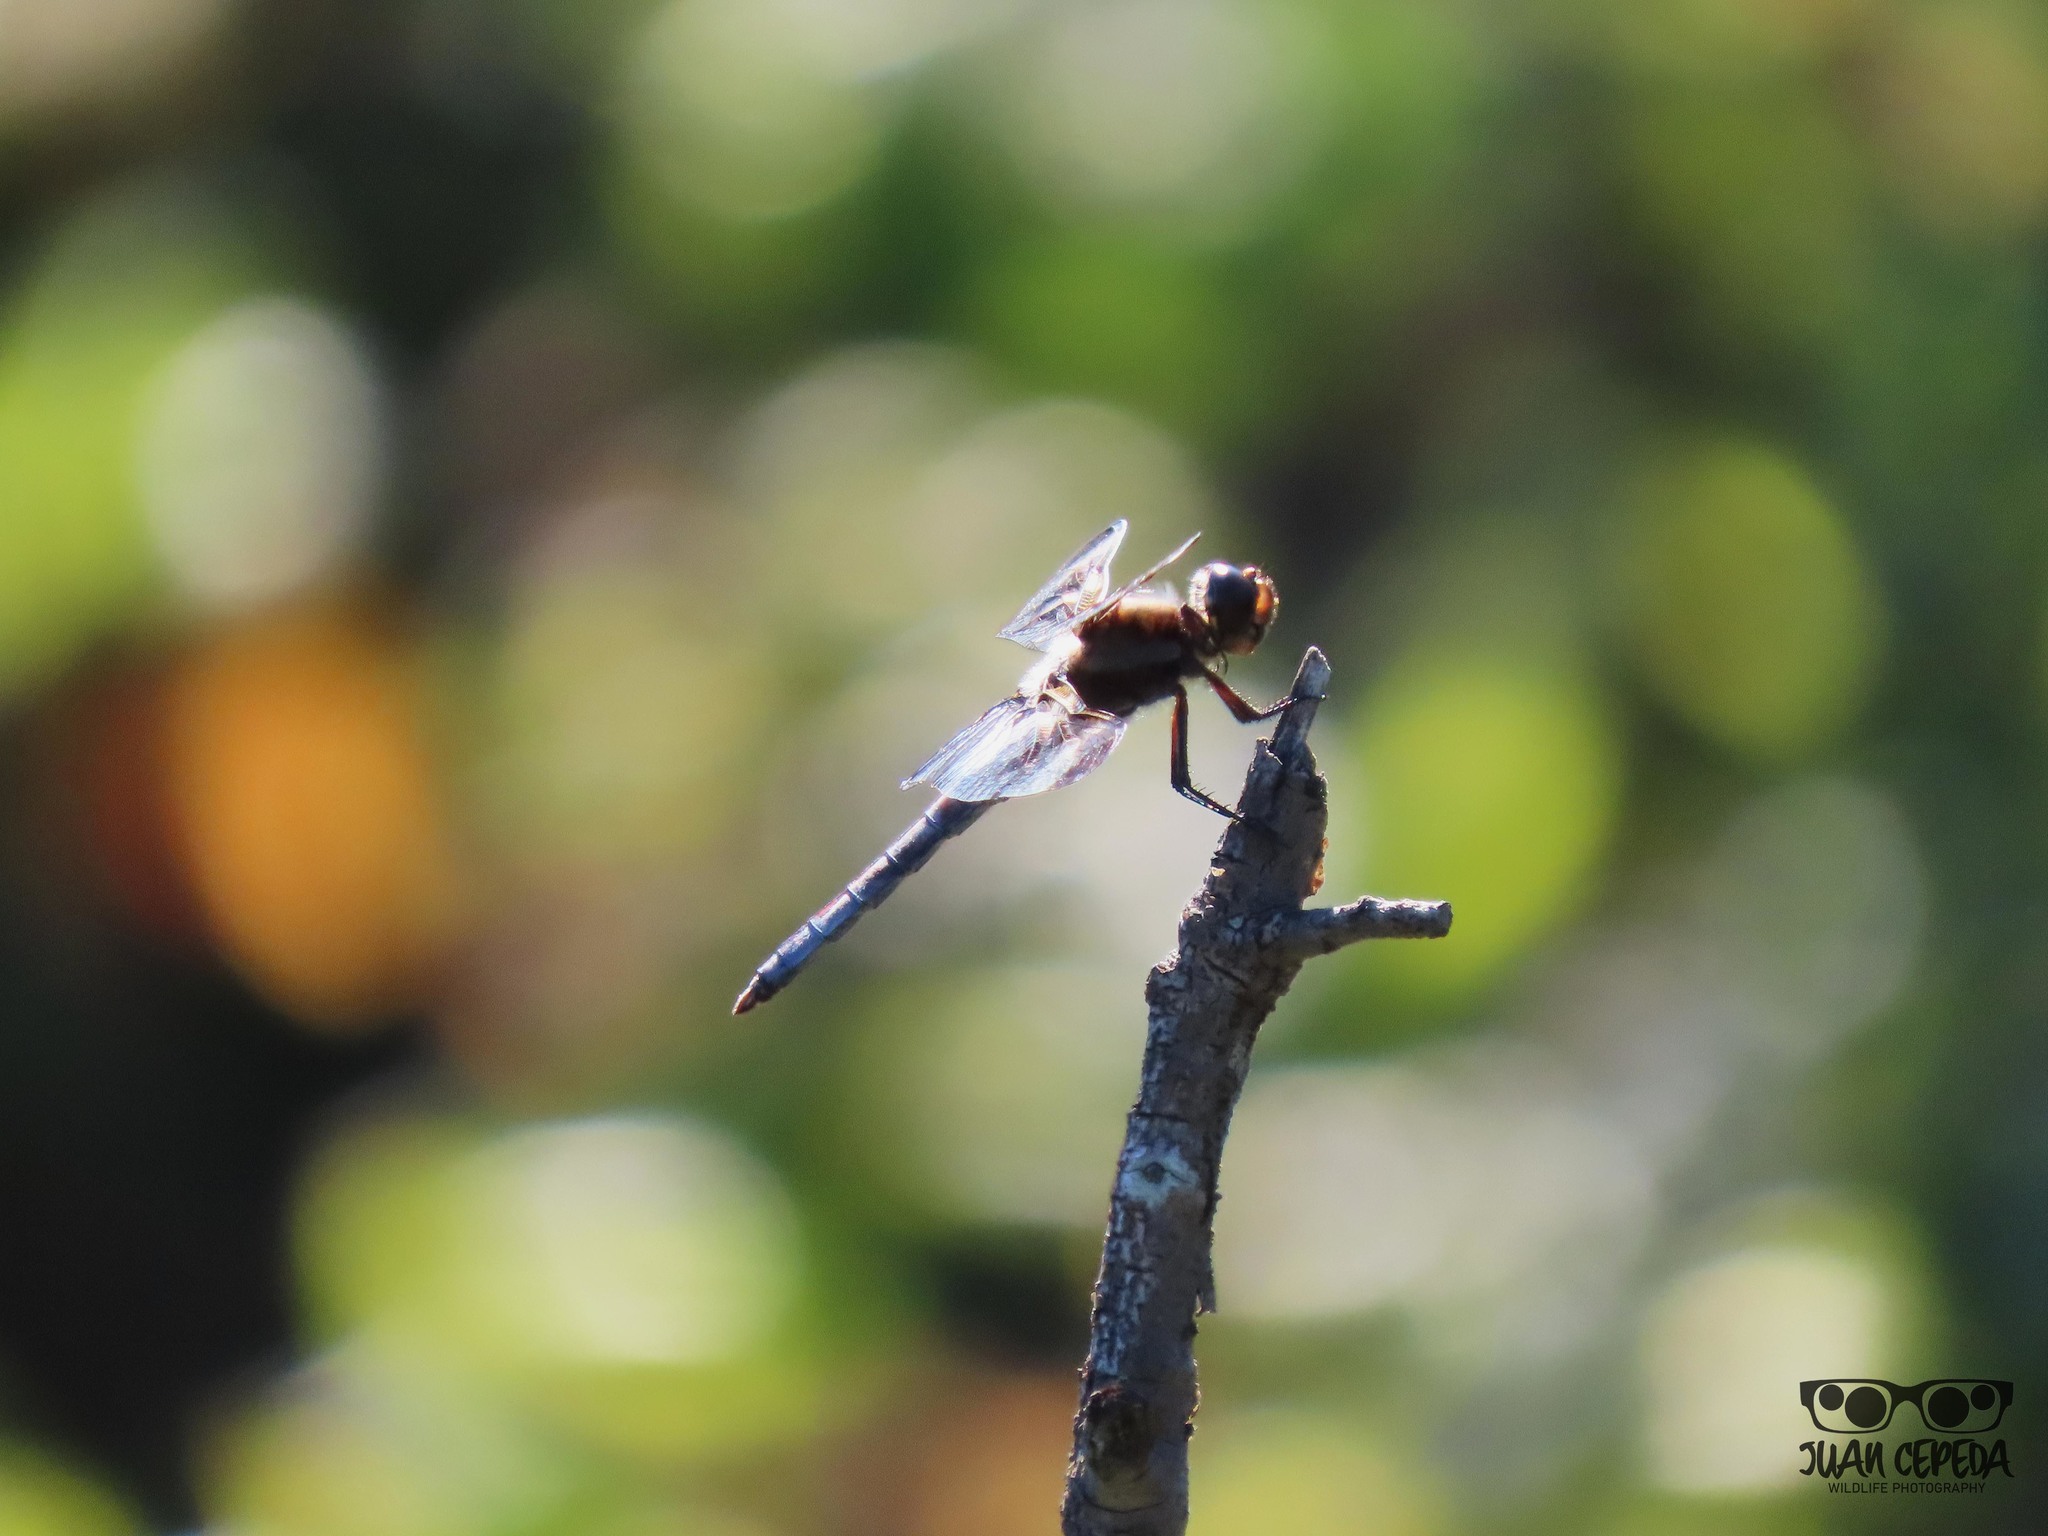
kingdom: Animalia
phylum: Arthropoda
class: Insecta
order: Odonata
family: Libellulidae
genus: Libellula
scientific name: Libellula pulchella
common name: Twelve-spotted skimmer
